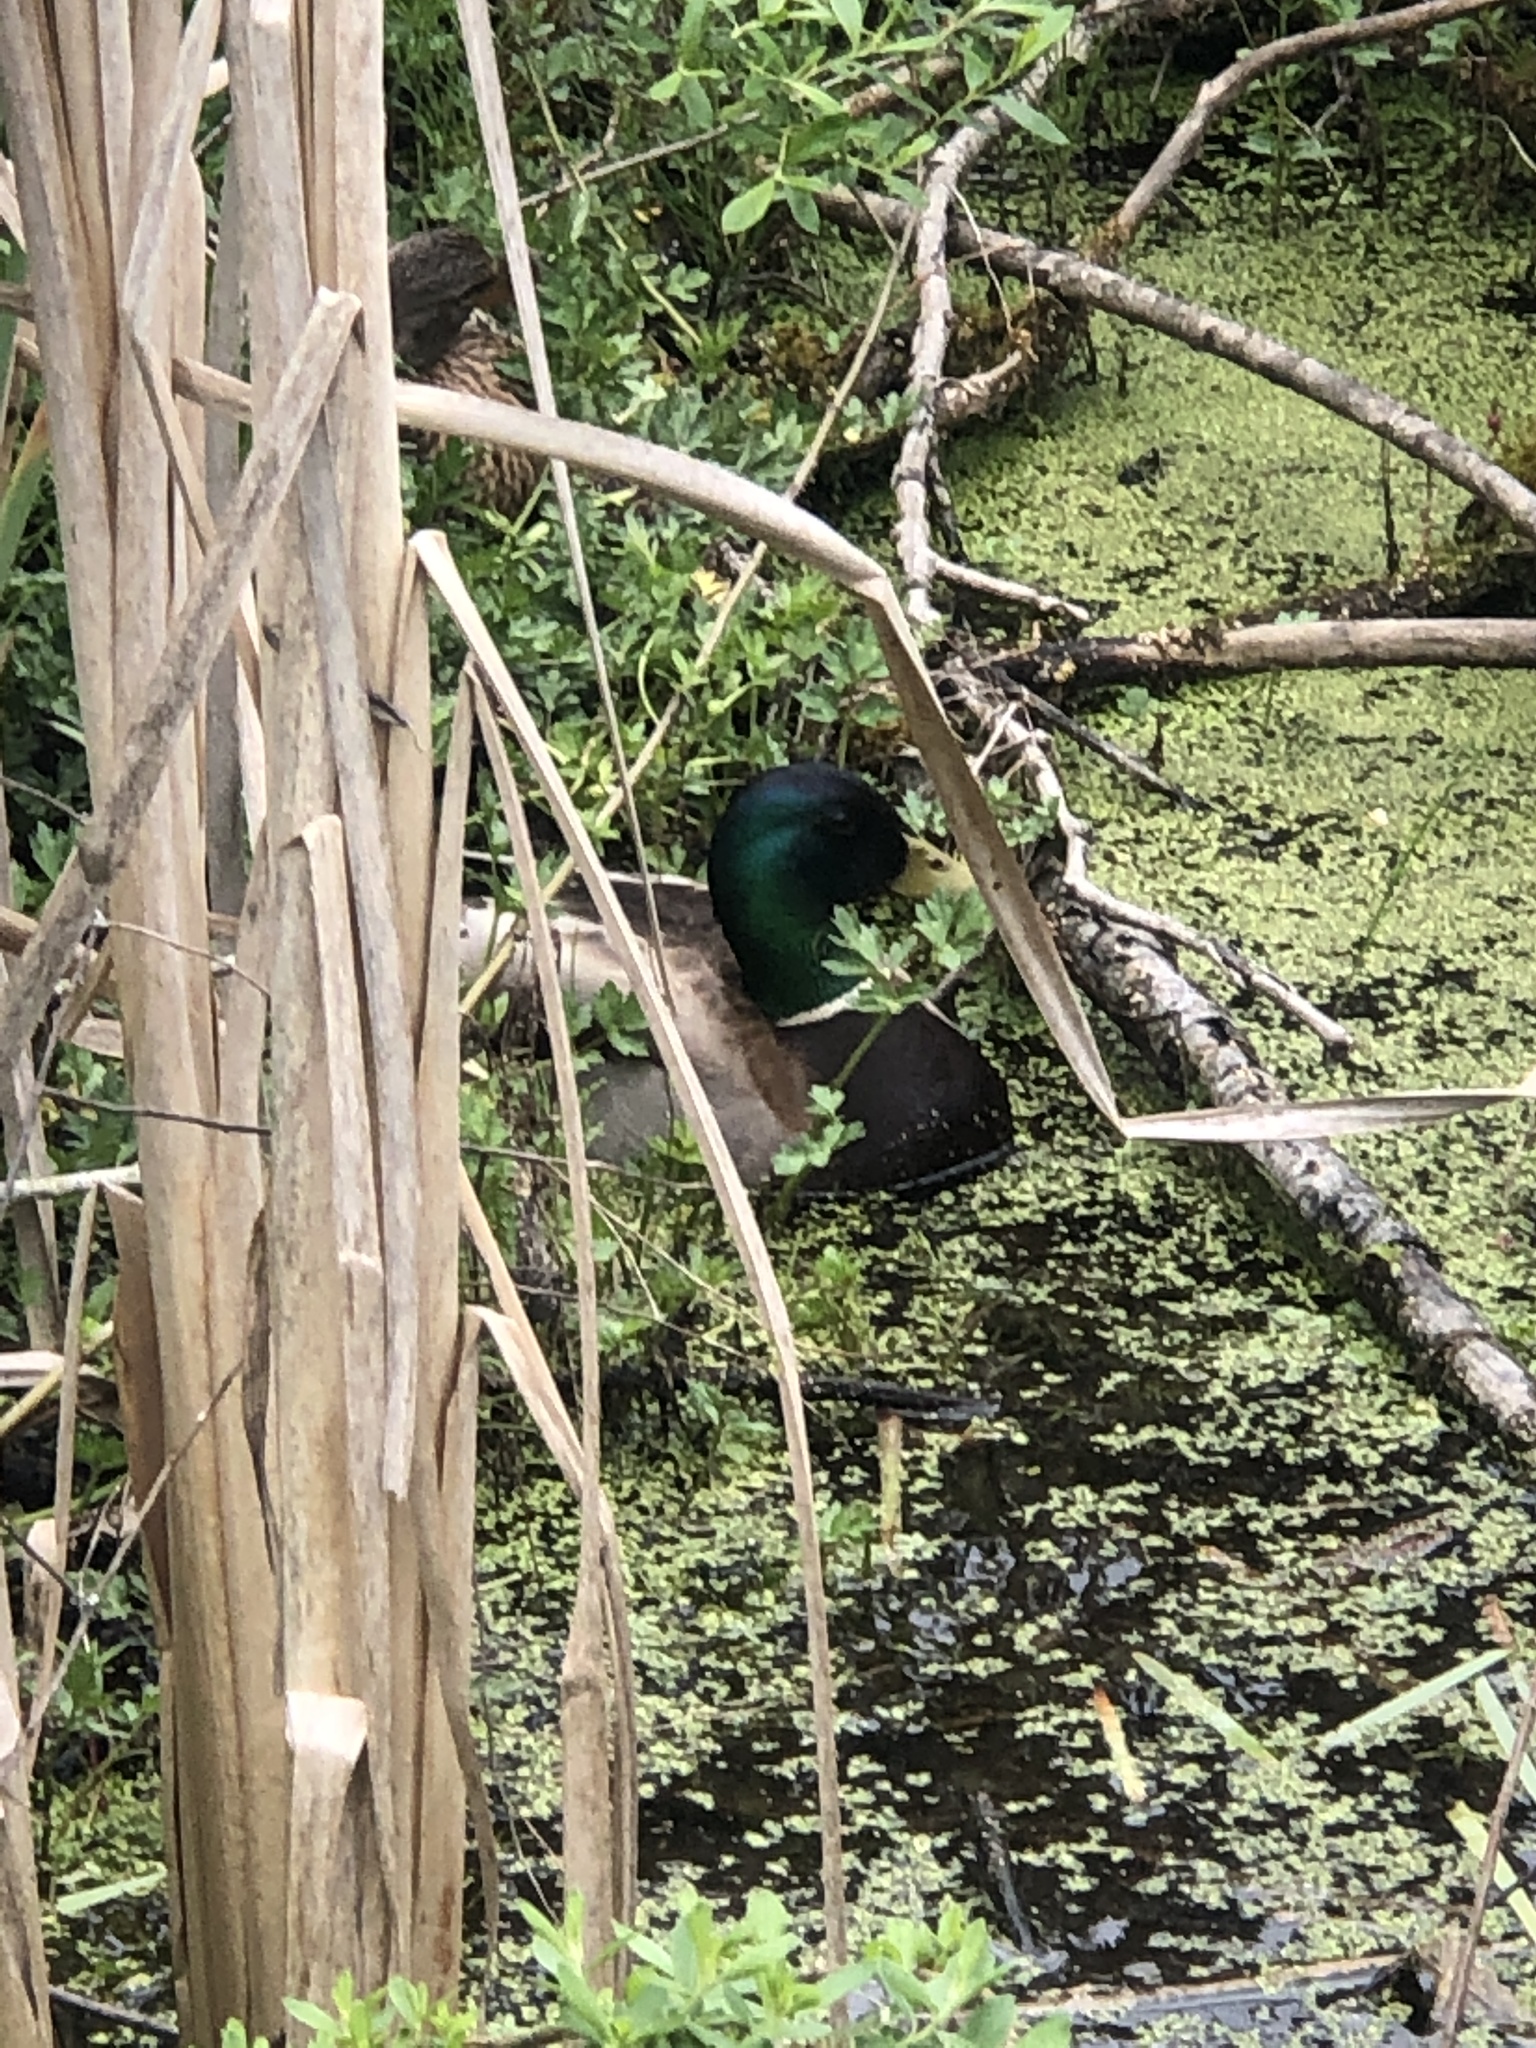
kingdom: Animalia
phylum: Chordata
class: Aves
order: Anseriformes
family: Anatidae
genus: Anas
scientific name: Anas platyrhynchos
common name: Mallard
